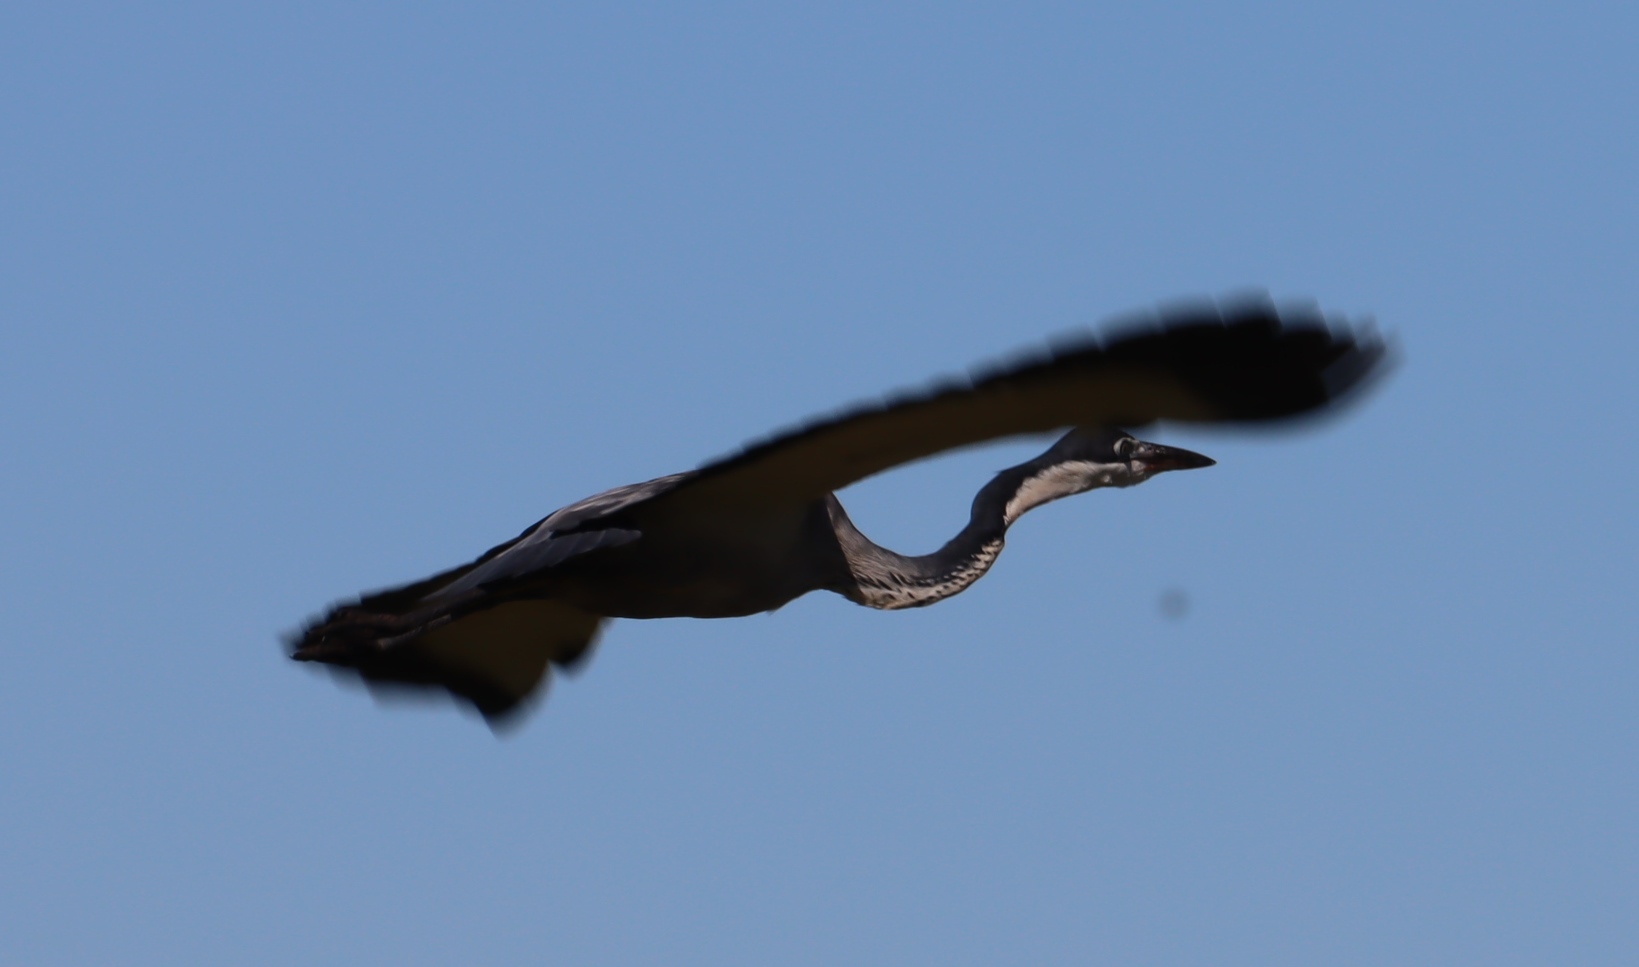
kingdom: Animalia
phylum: Chordata
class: Aves
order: Pelecaniformes
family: Ardeidae
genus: Ardea
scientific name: Ardea melanocephala
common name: Black-headed heron
